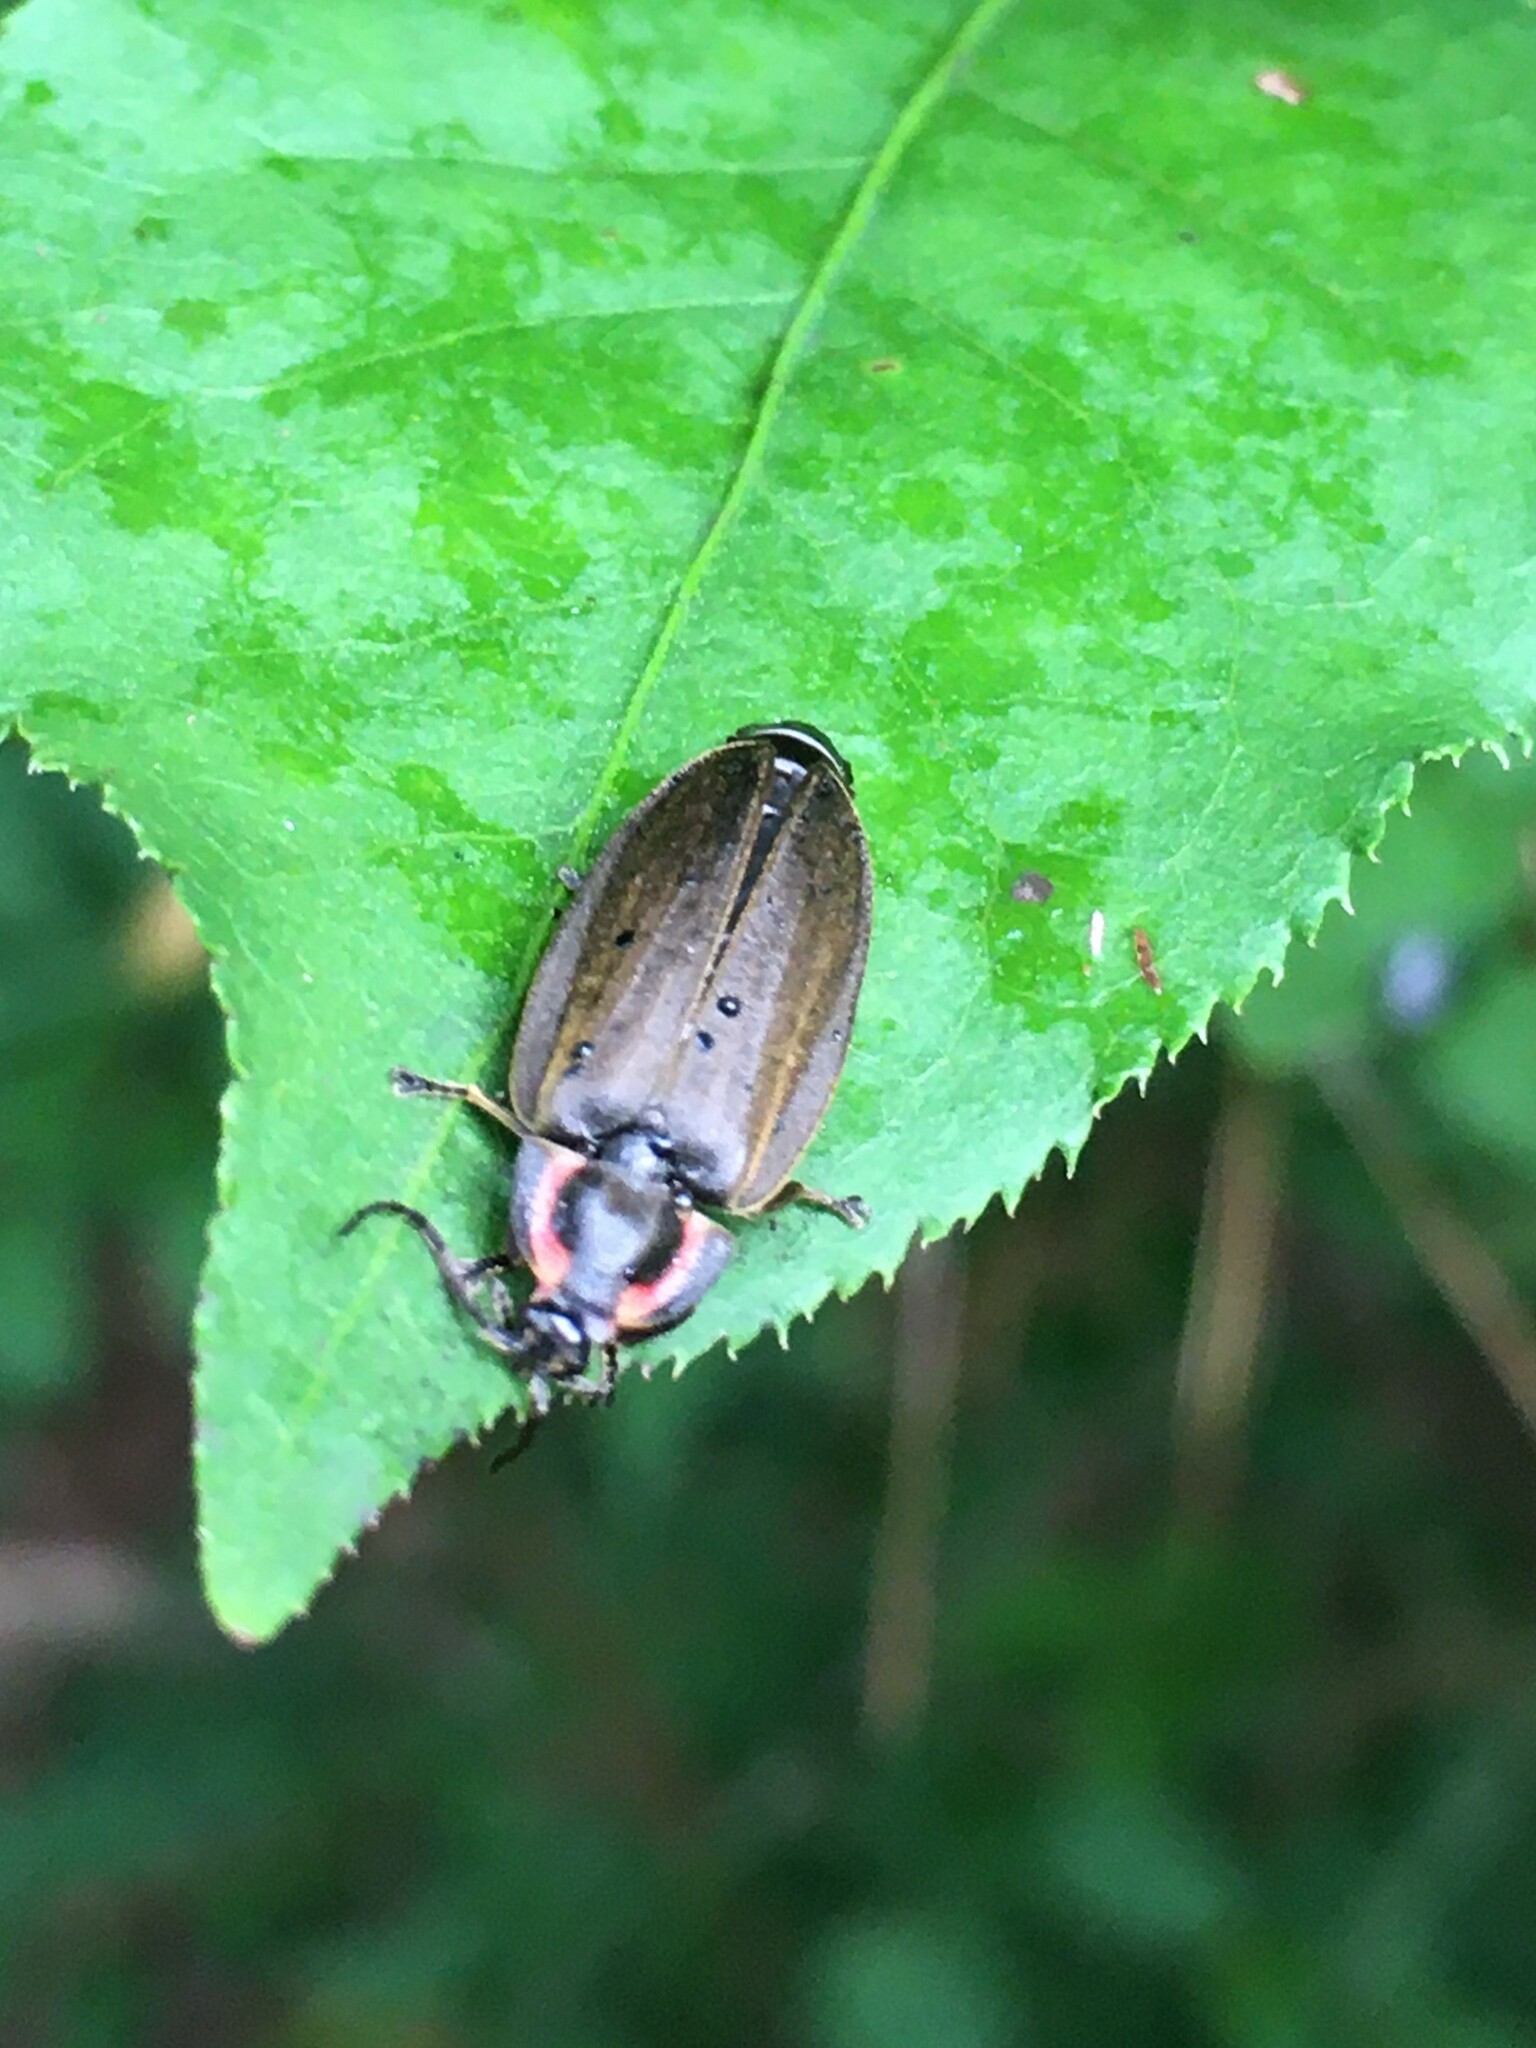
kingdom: Animalia
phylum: Arthropoda
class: Insecta
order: Coleoptera
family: Lampyridae
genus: Photinus
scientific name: Photinus corrusca
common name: Winter firefly
